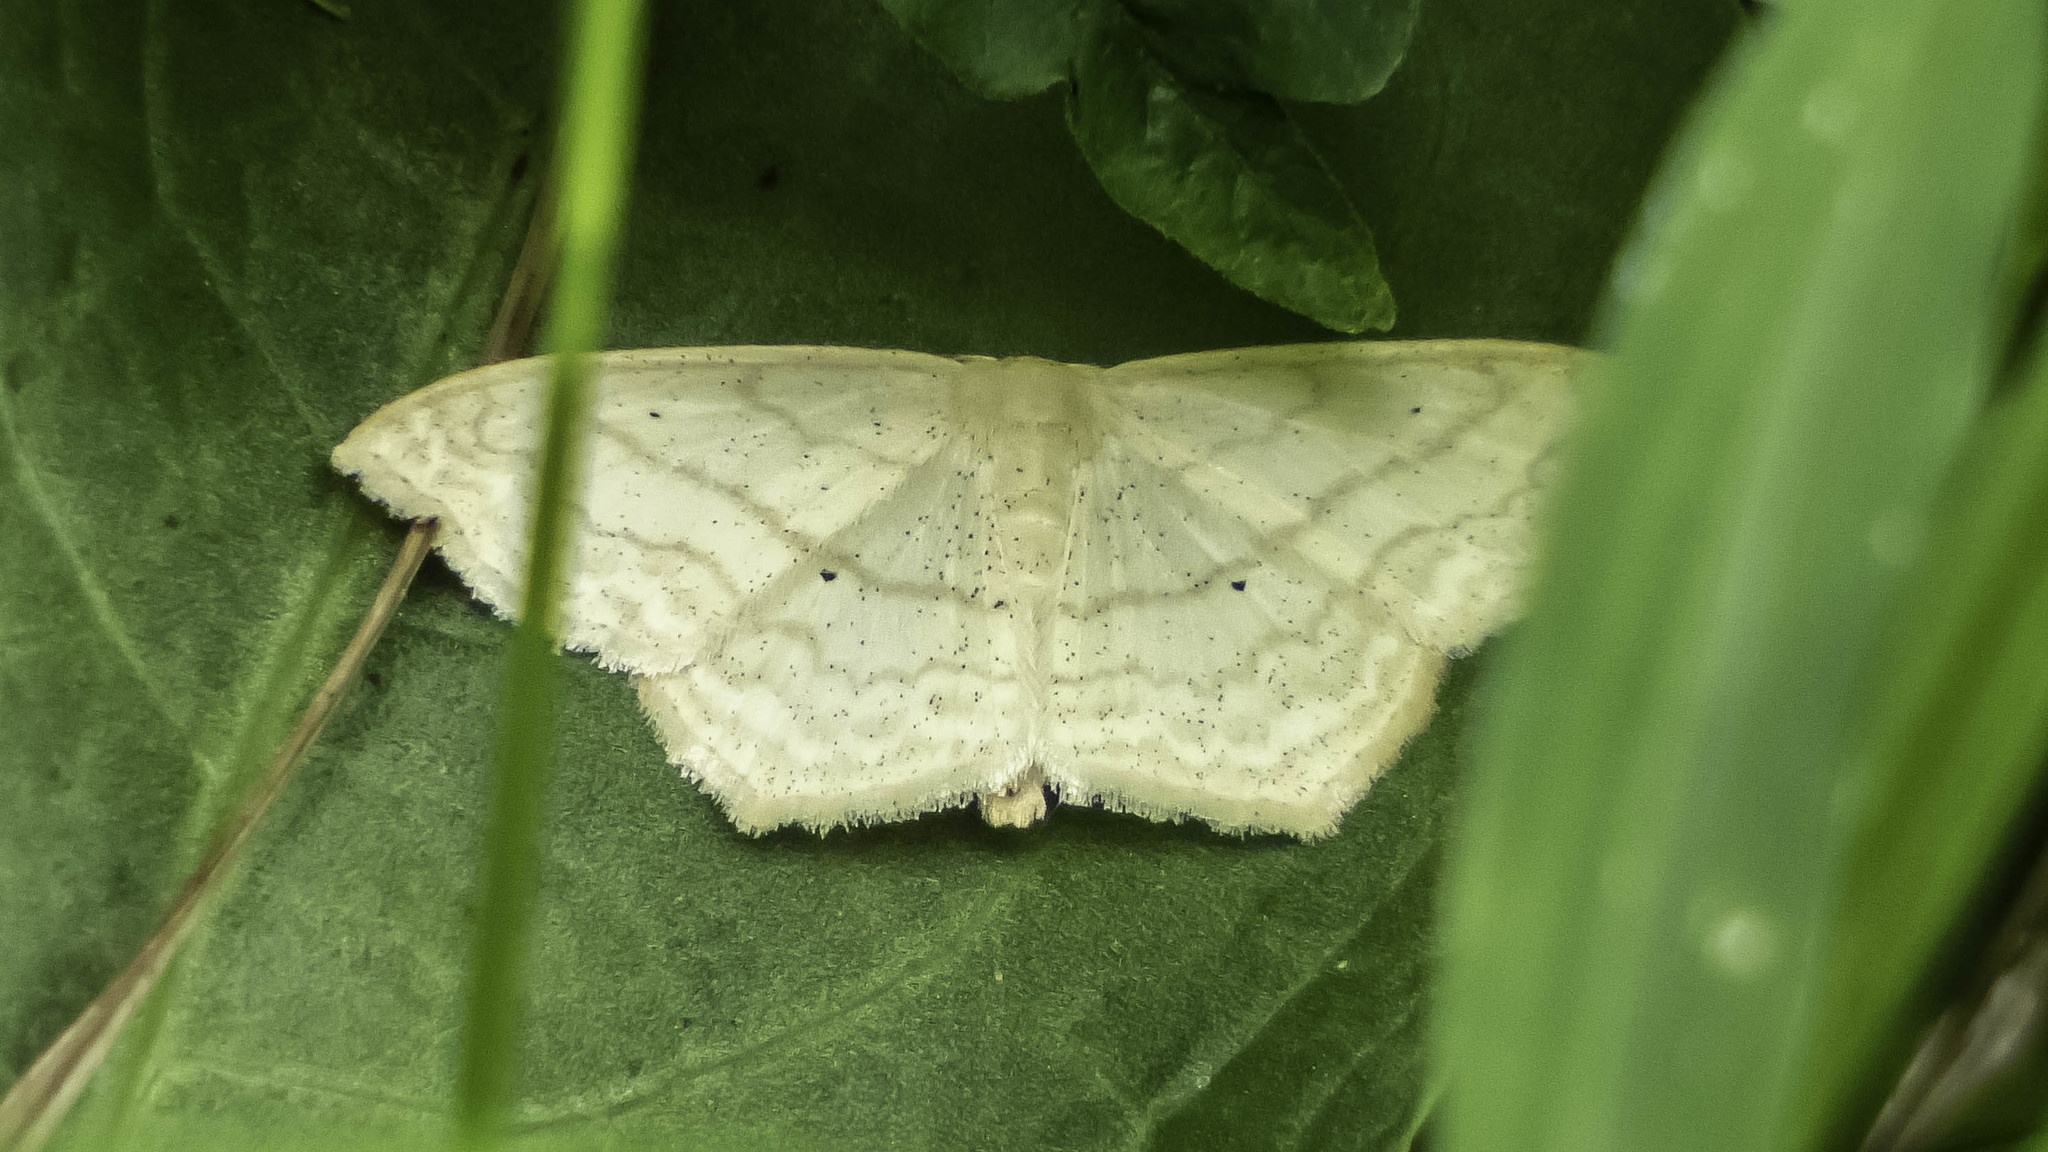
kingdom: Animalia
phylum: Arthropoda
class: Insecta
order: Lepidoptera
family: Geometridae
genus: Scopula
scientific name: Scopula limboundata
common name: Large lace border
